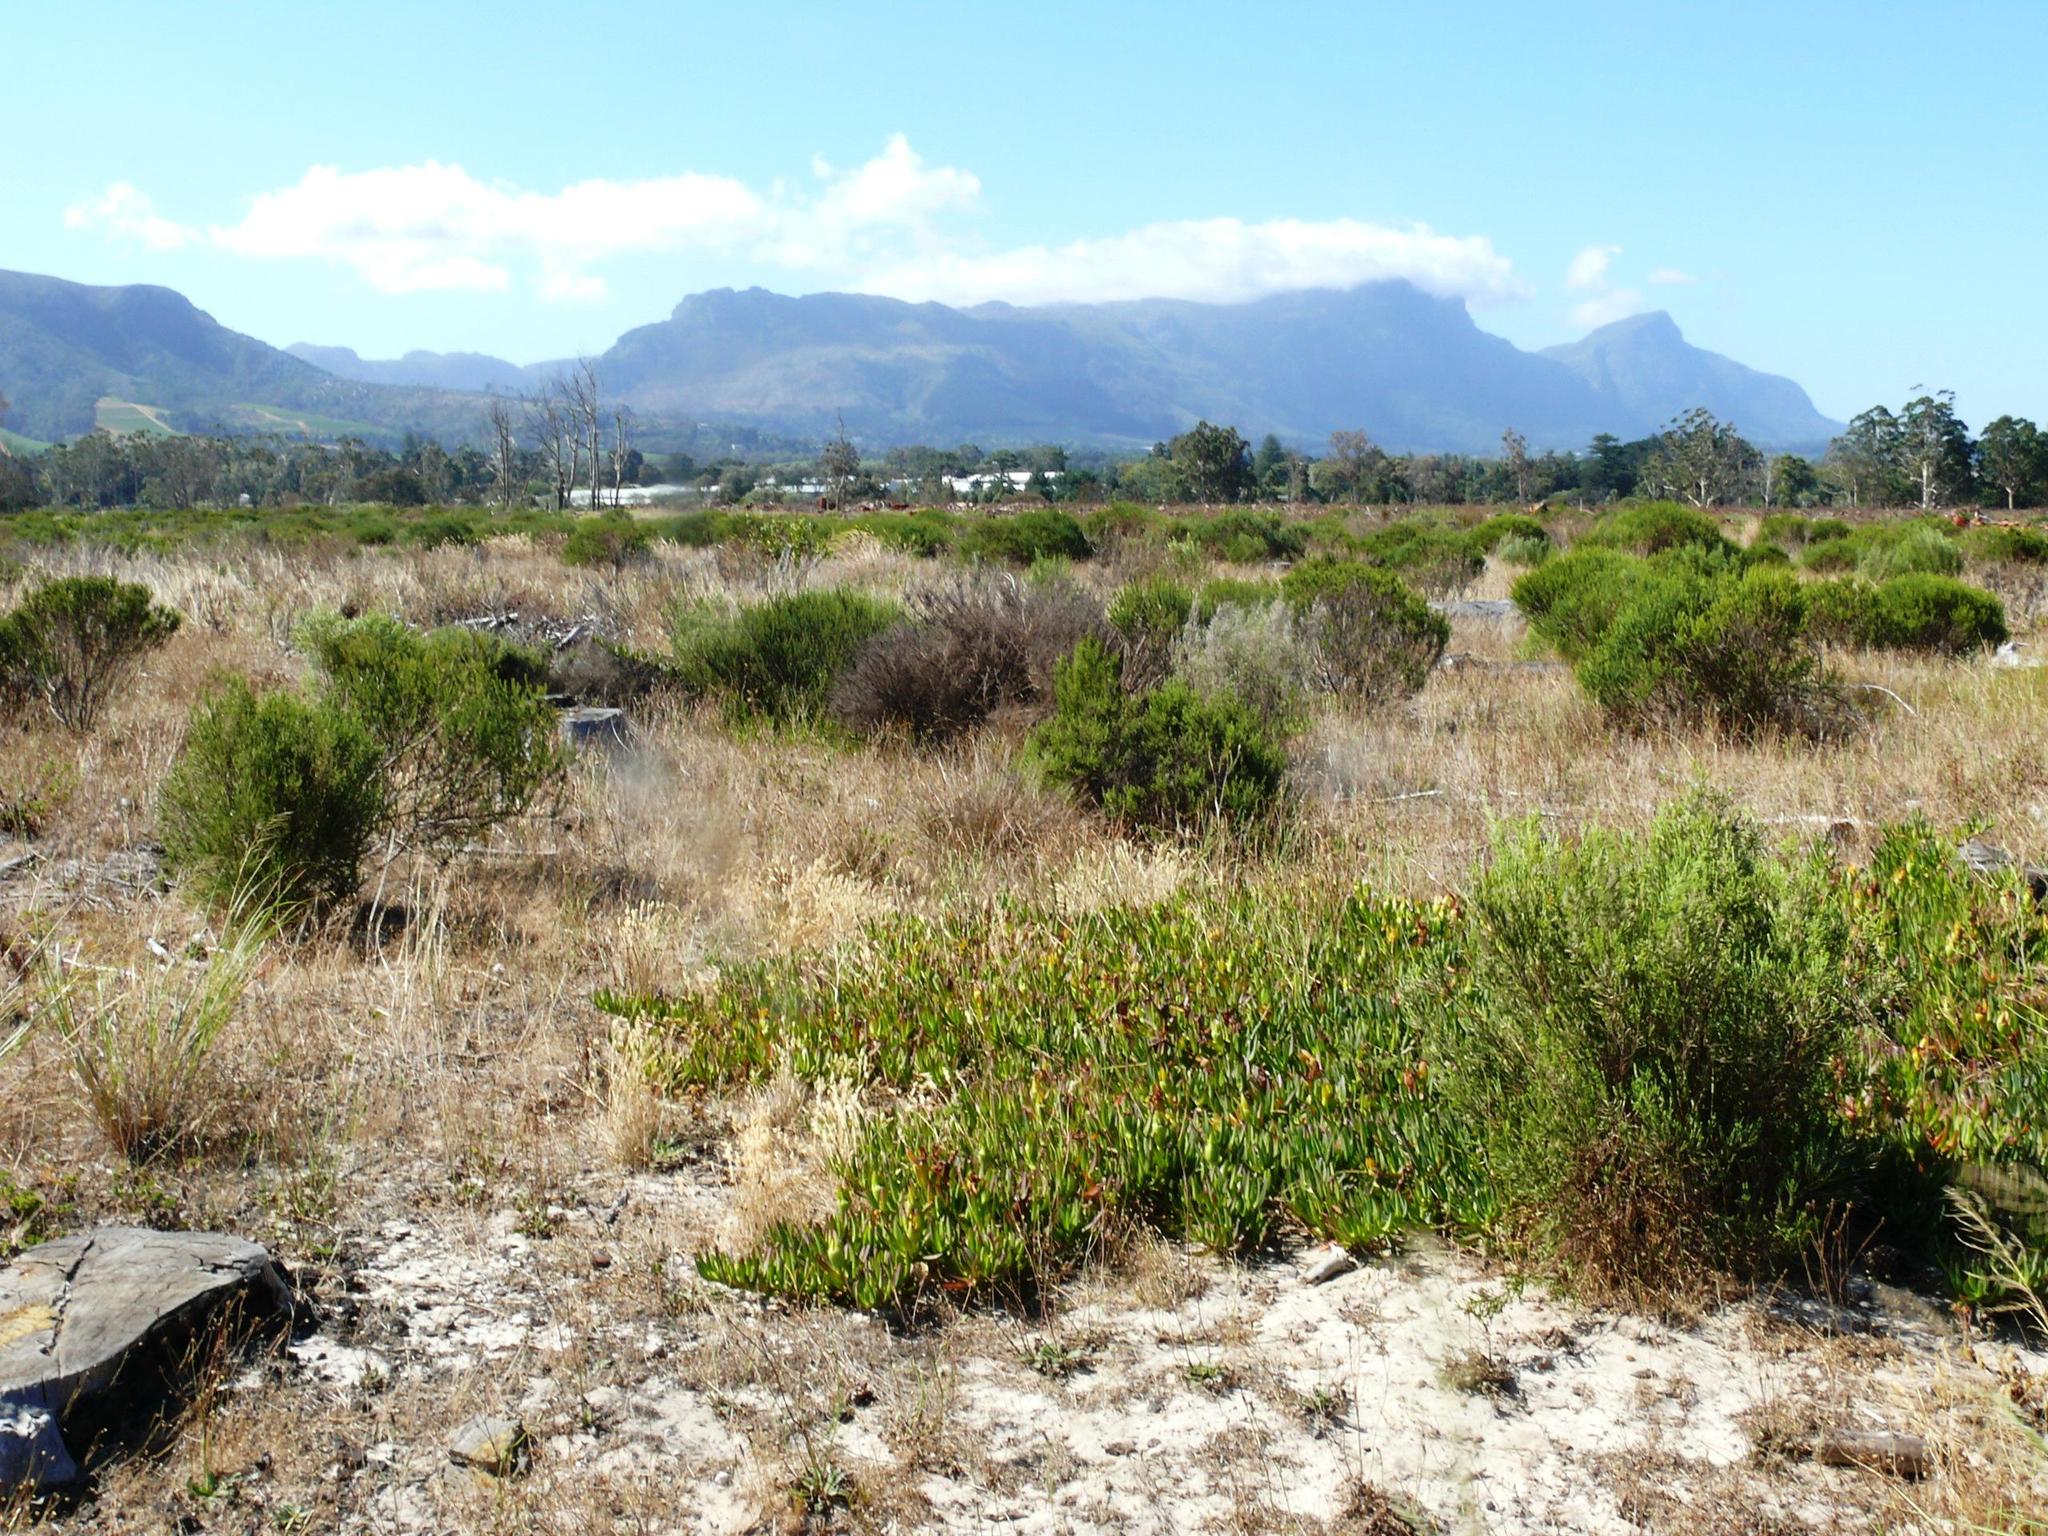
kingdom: Plantae
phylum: Tracheophyta
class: Magnoliopsida
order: Caryophyllales
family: Aizoaceae
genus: Carpobrotus
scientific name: Carpobrotus edulis
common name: Hottentot-fig
